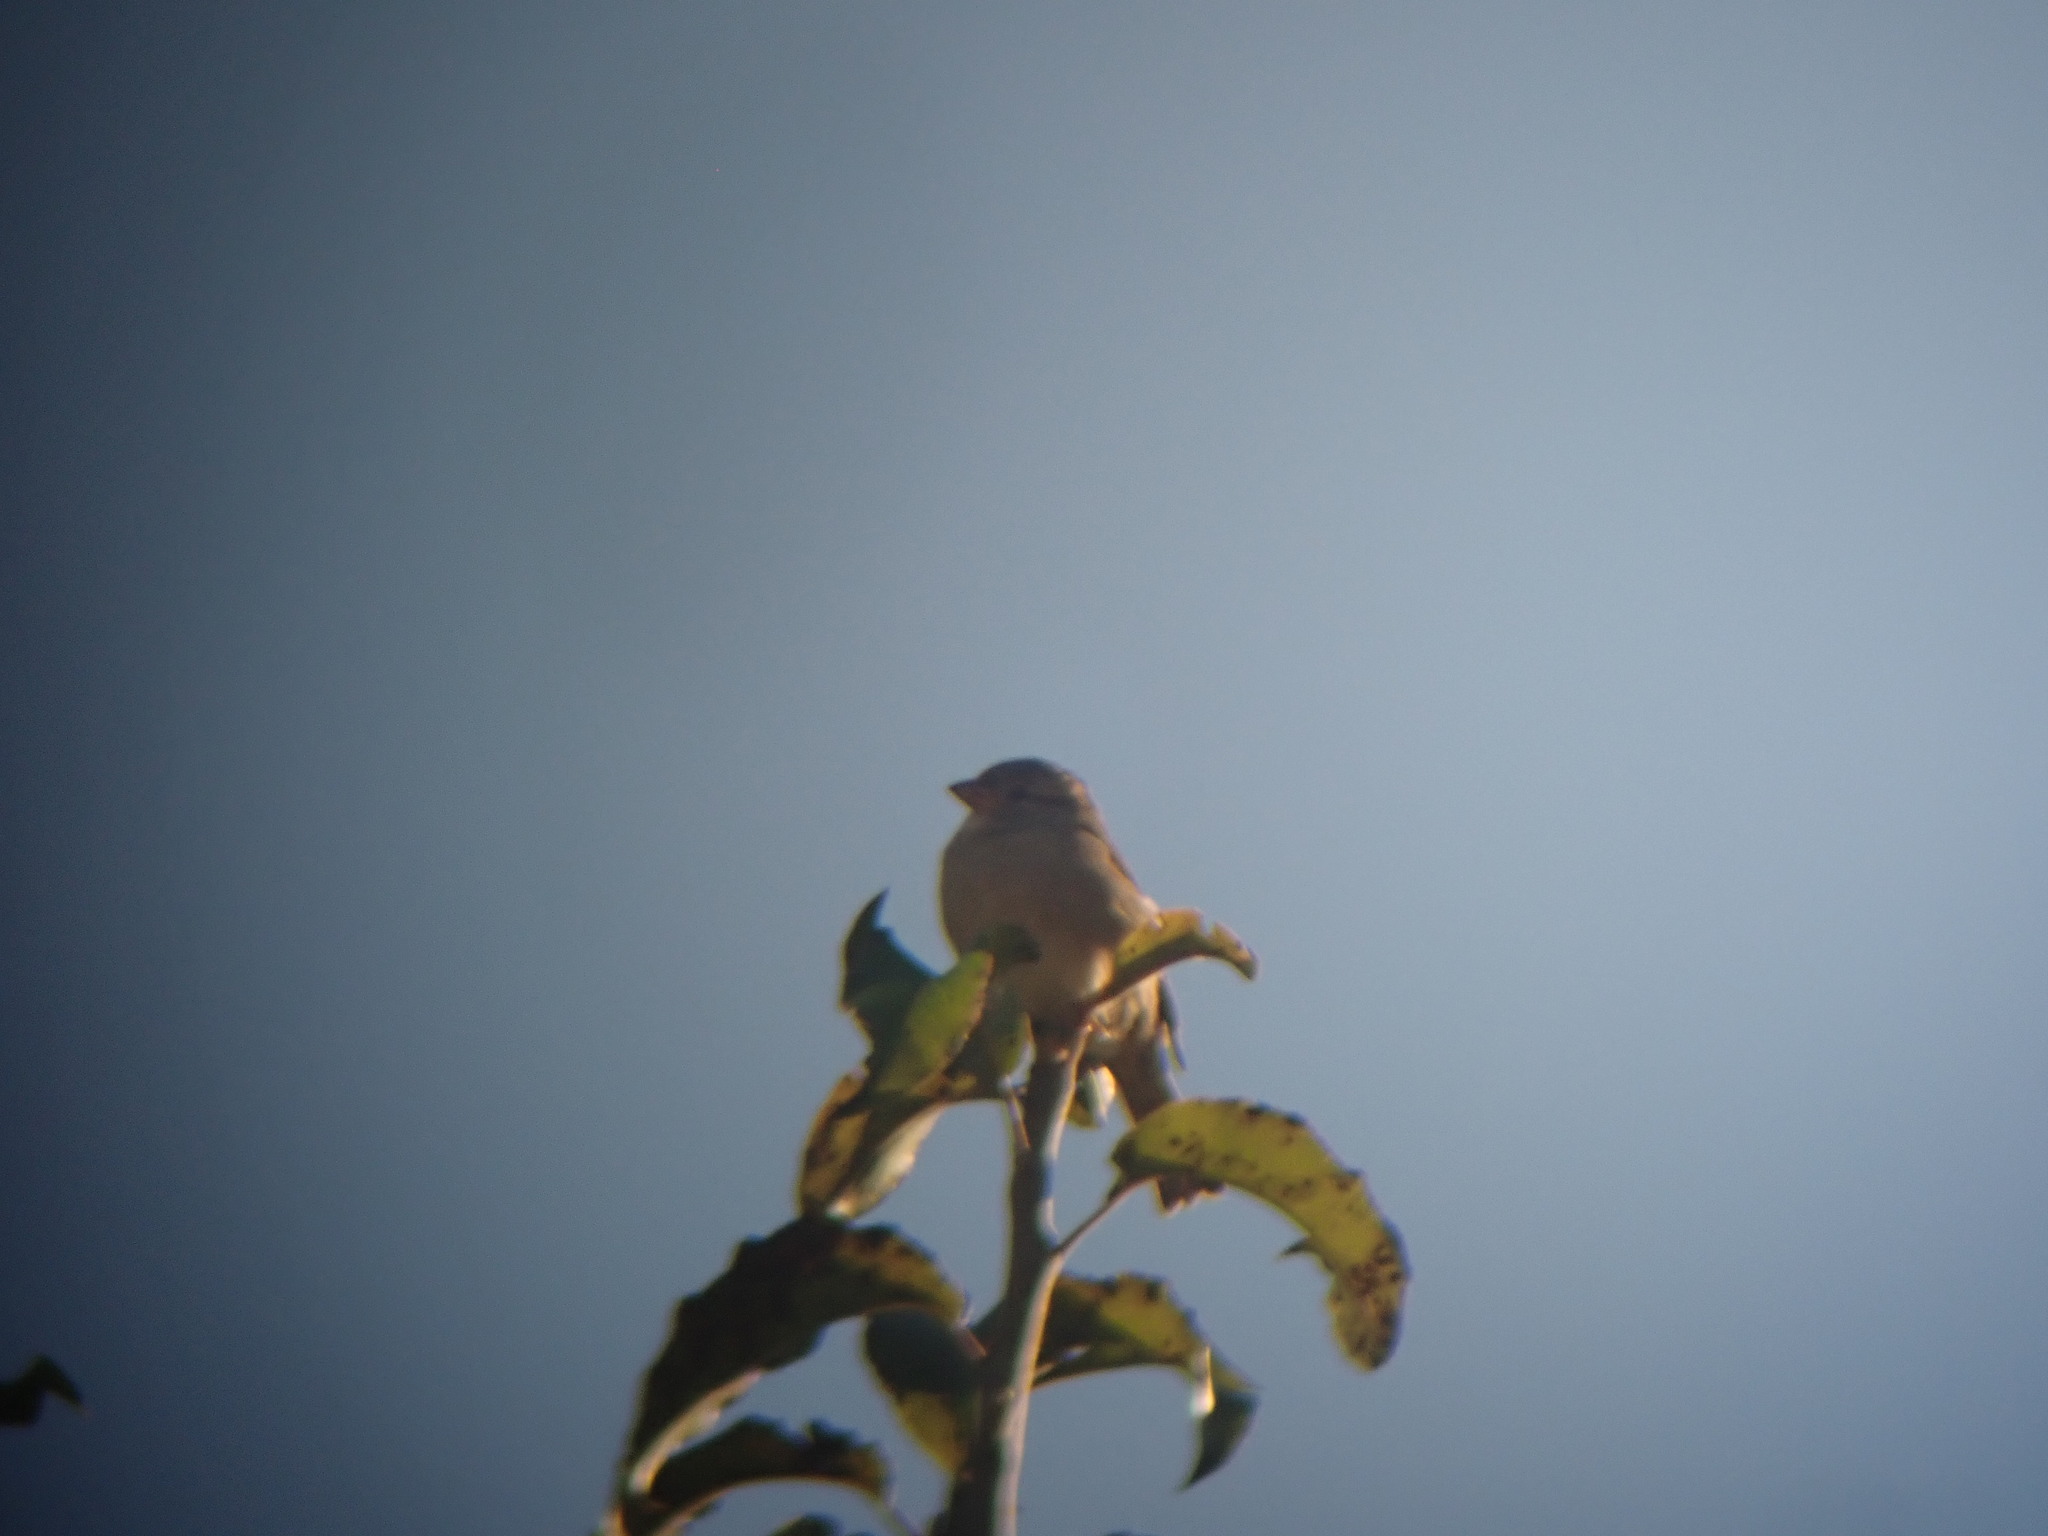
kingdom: Animalia
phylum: Chordata
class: Aves
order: Passeriformes
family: Passeridae
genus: Passer
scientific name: Passer domesticus
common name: House sparrow
